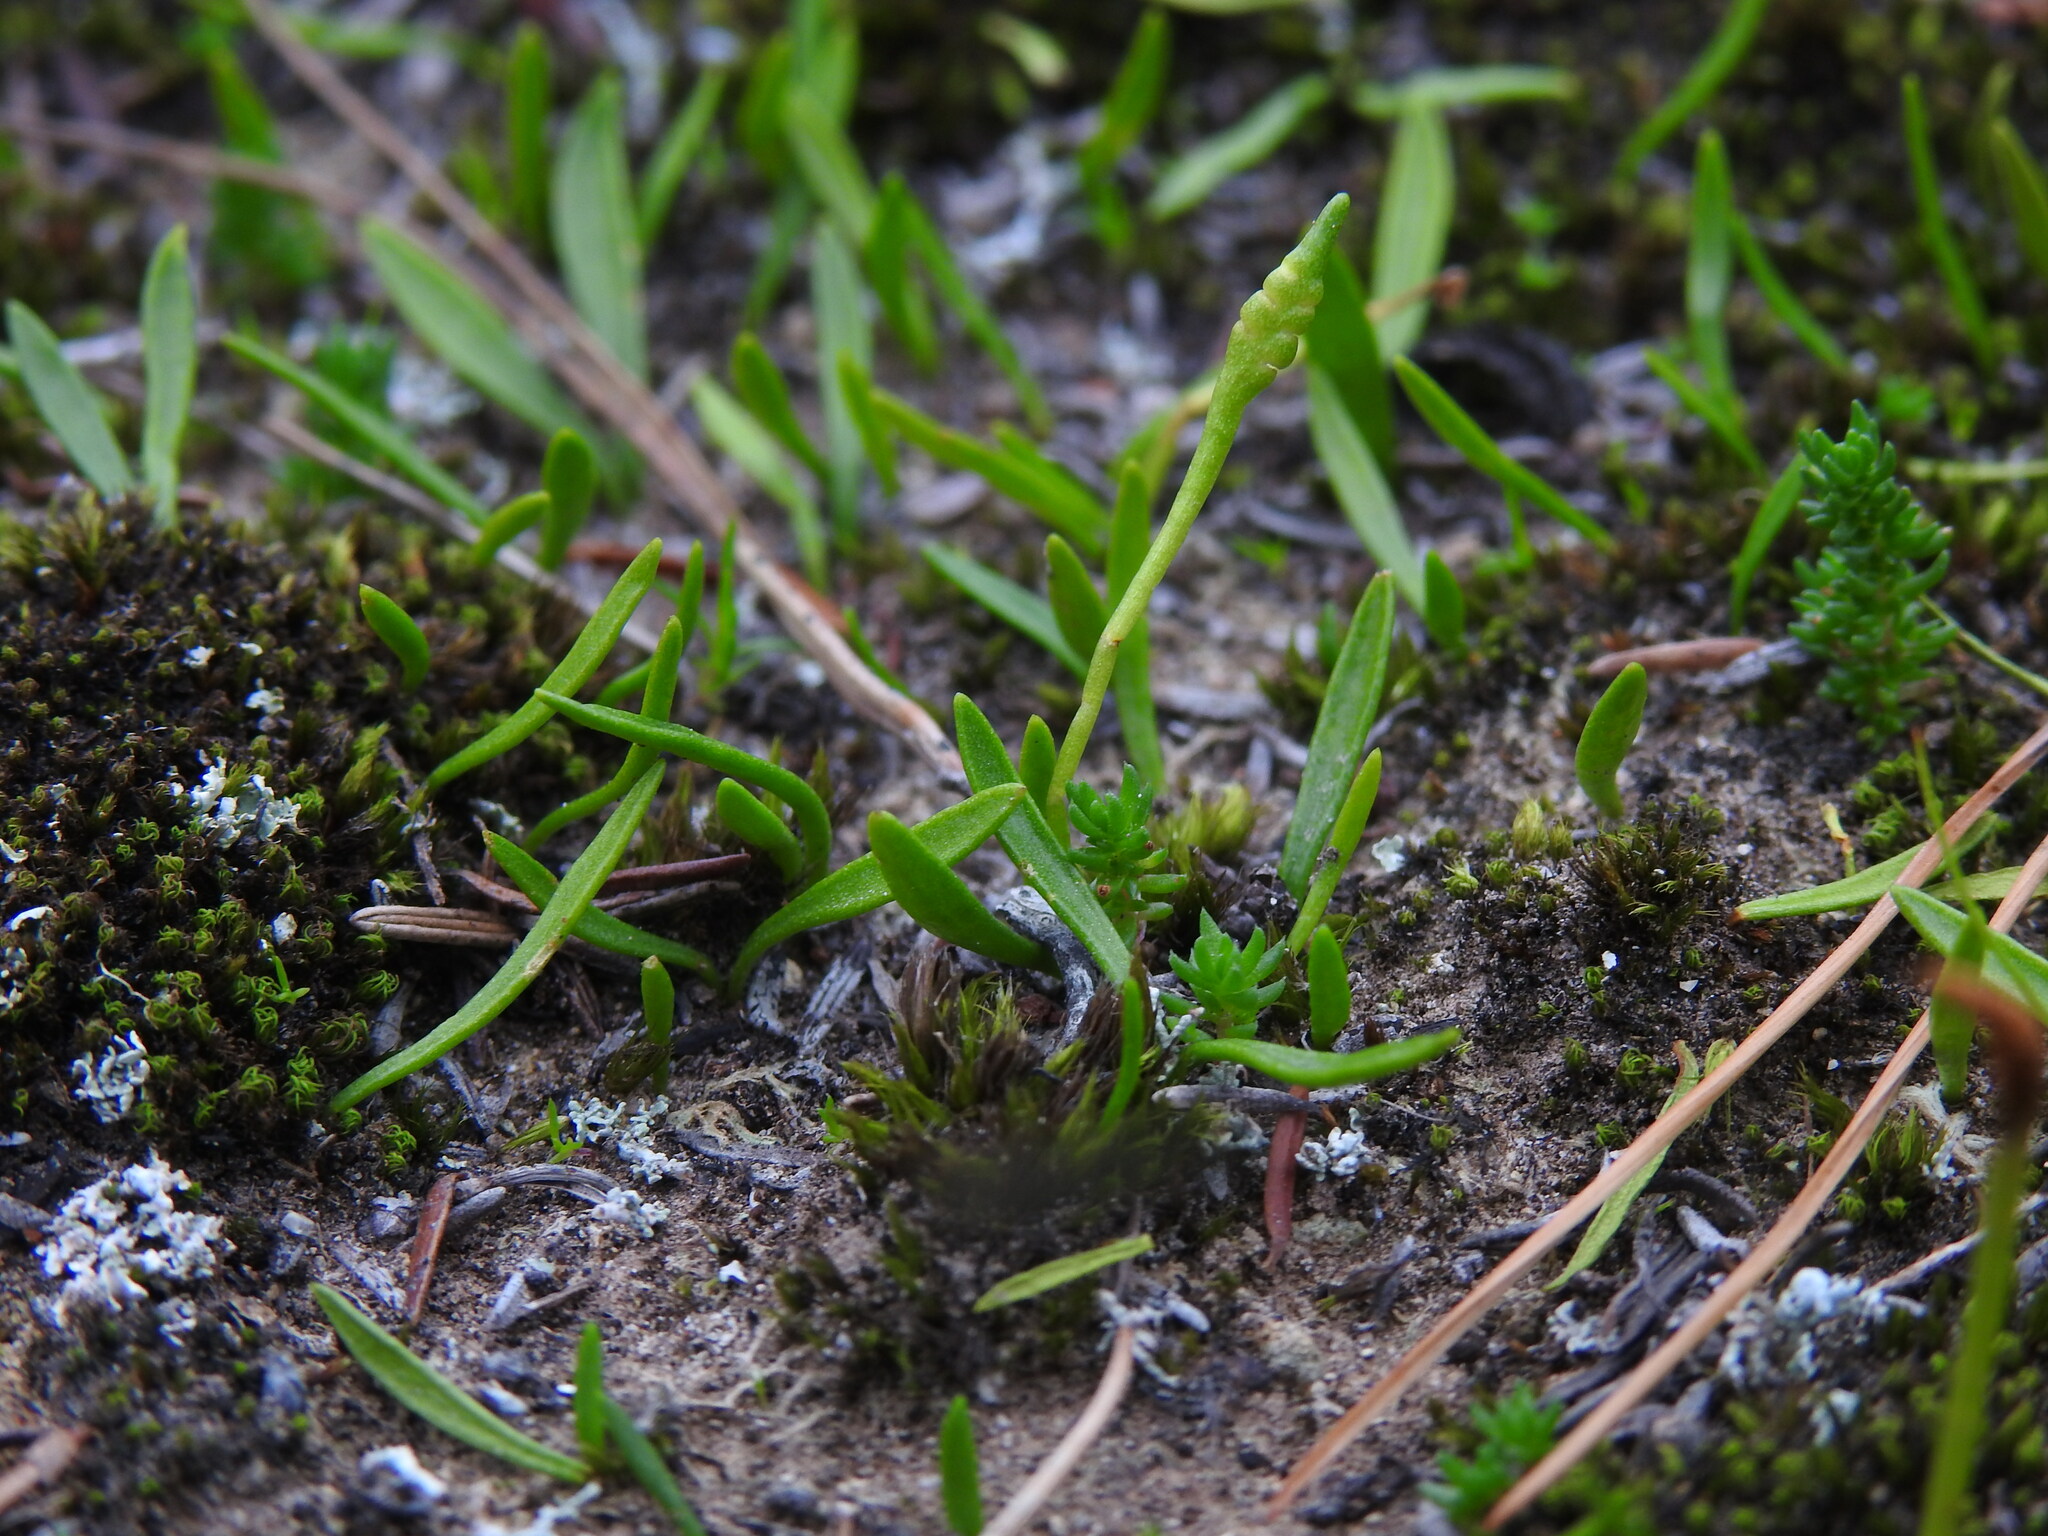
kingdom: Plantae
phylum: Tracheophyta
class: Polypodiopsida
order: Ophioglossales
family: Ophioglossaceae
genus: Ophioglossum
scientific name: Ophioglossum lusitanicum
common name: Least adder's-tongue
